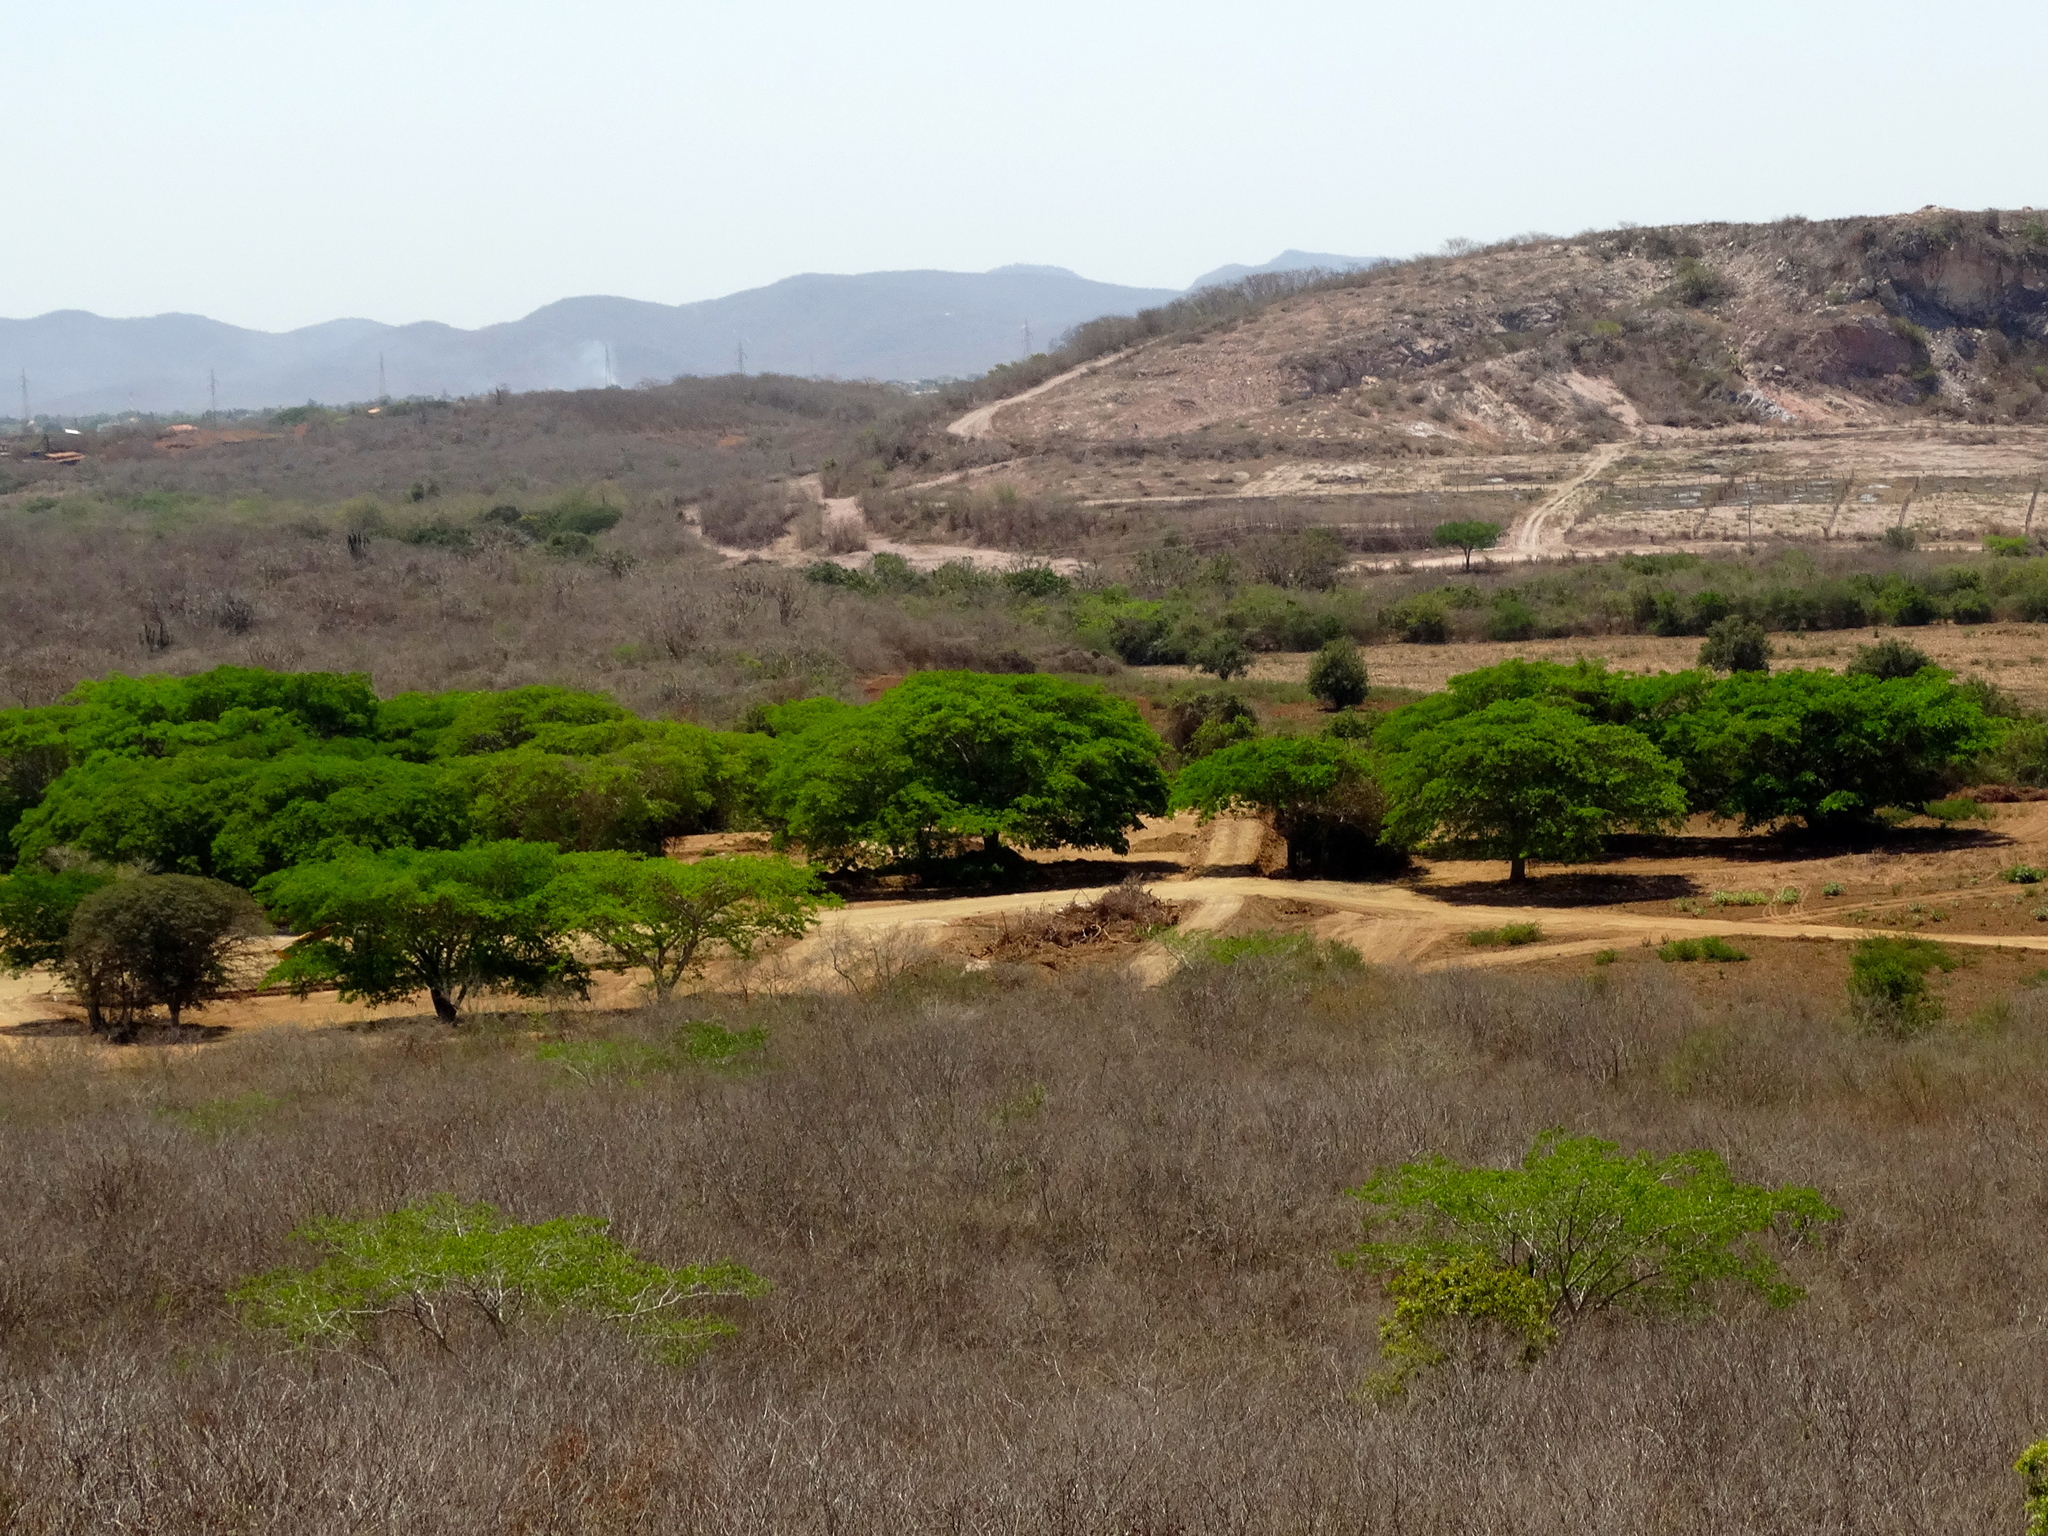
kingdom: Plantae
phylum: Tracheophyta
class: Magnoliopsida
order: Fabales
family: Fabaceae
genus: Enterolobium
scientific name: Enterolobium cyclocarpum
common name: Ear tree
